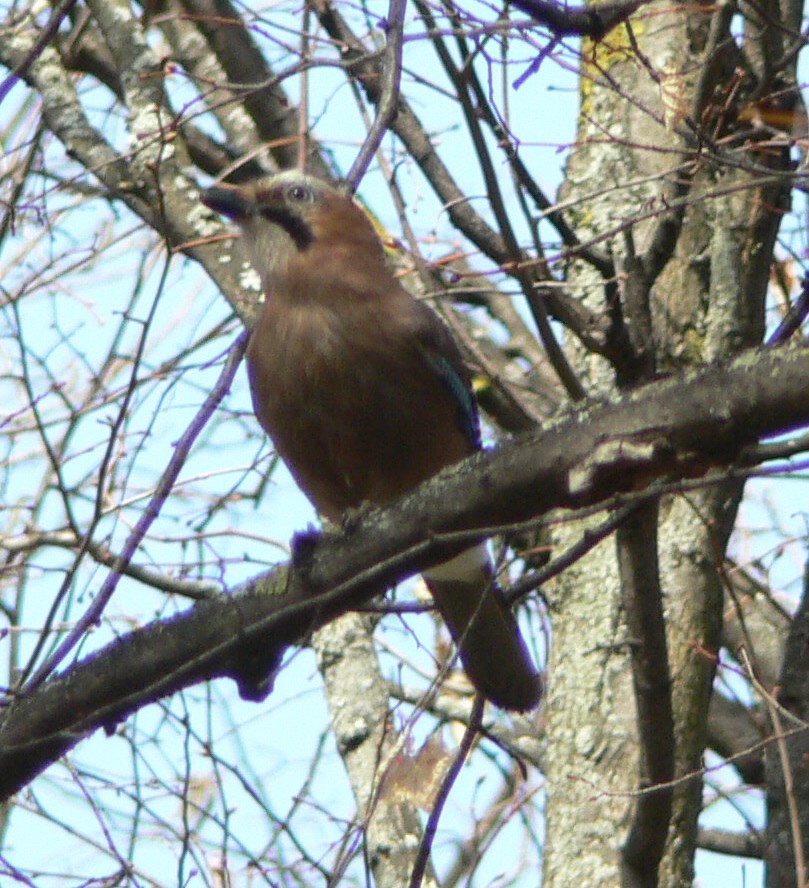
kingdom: Animalia
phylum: Chordata
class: Aves
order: Passeriformes
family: Corvidae
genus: Garrulus
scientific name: Garrulus glandarius
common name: Eurasian jay
